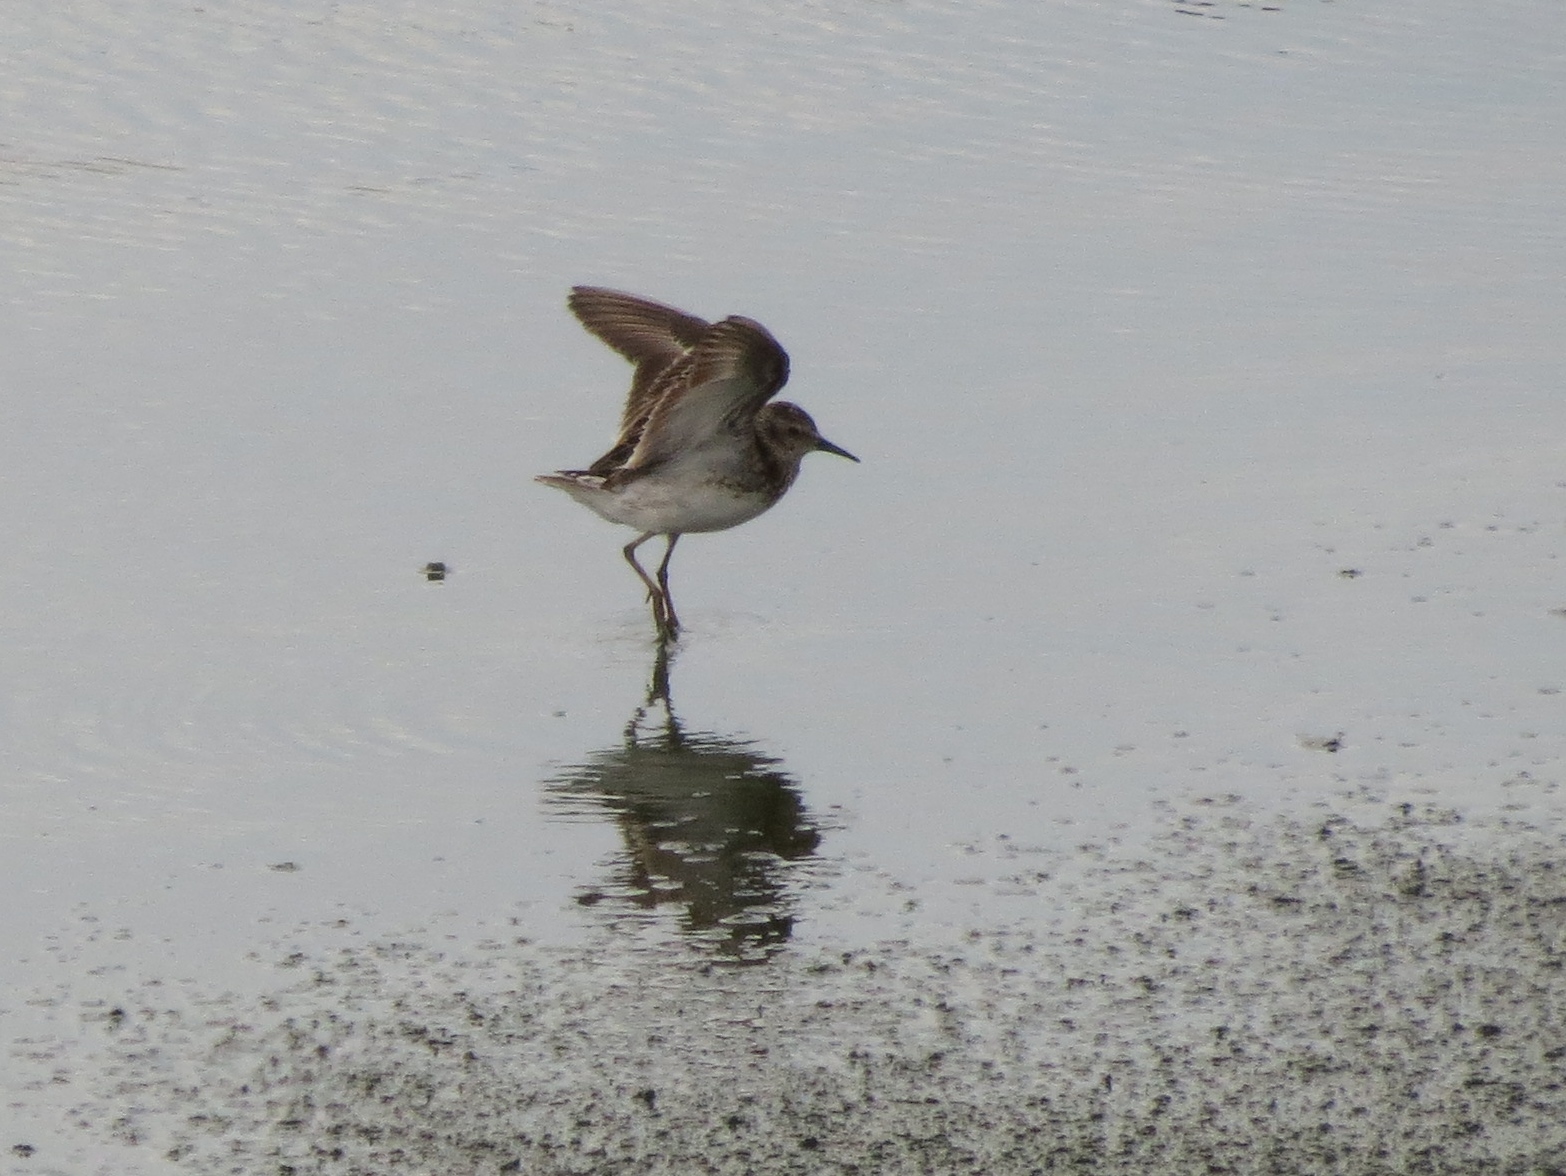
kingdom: Animalia
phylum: Chordata
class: Aves
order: Charadriiformes
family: Scolopacidae
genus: Calidris
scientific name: Calidris minutilla
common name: Least sandpiper
